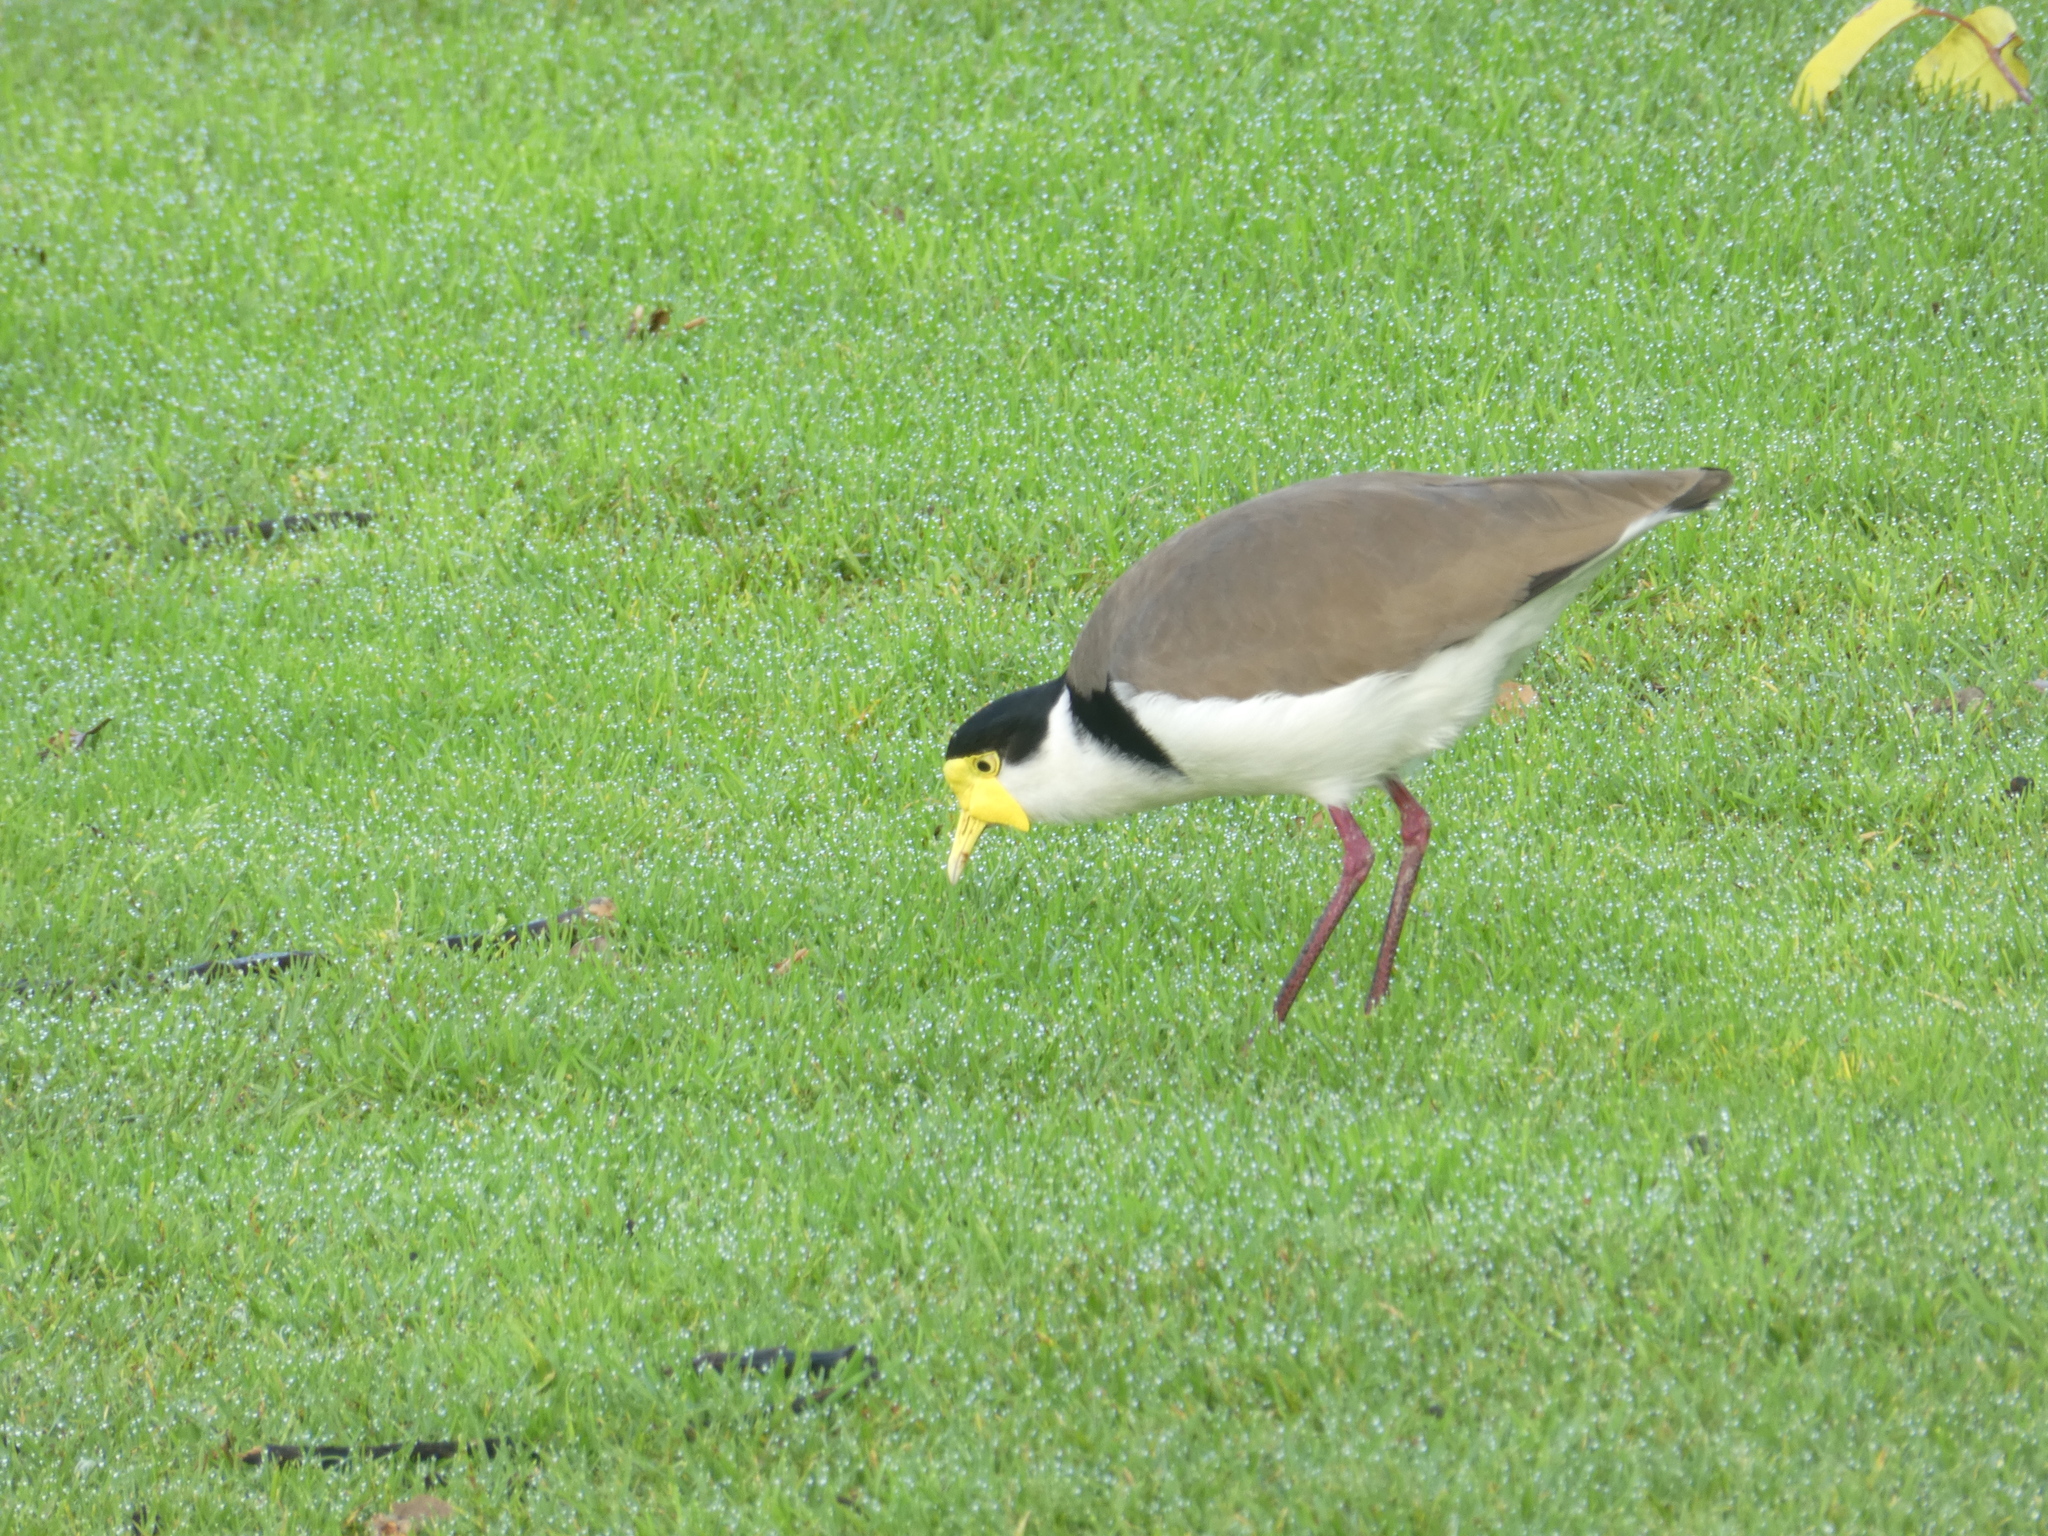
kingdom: Animalia
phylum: Chordata
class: Aves
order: Charadriiformes
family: Charadriidae
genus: Vanellus
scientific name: Vanellus miles
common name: Masked lapwing
